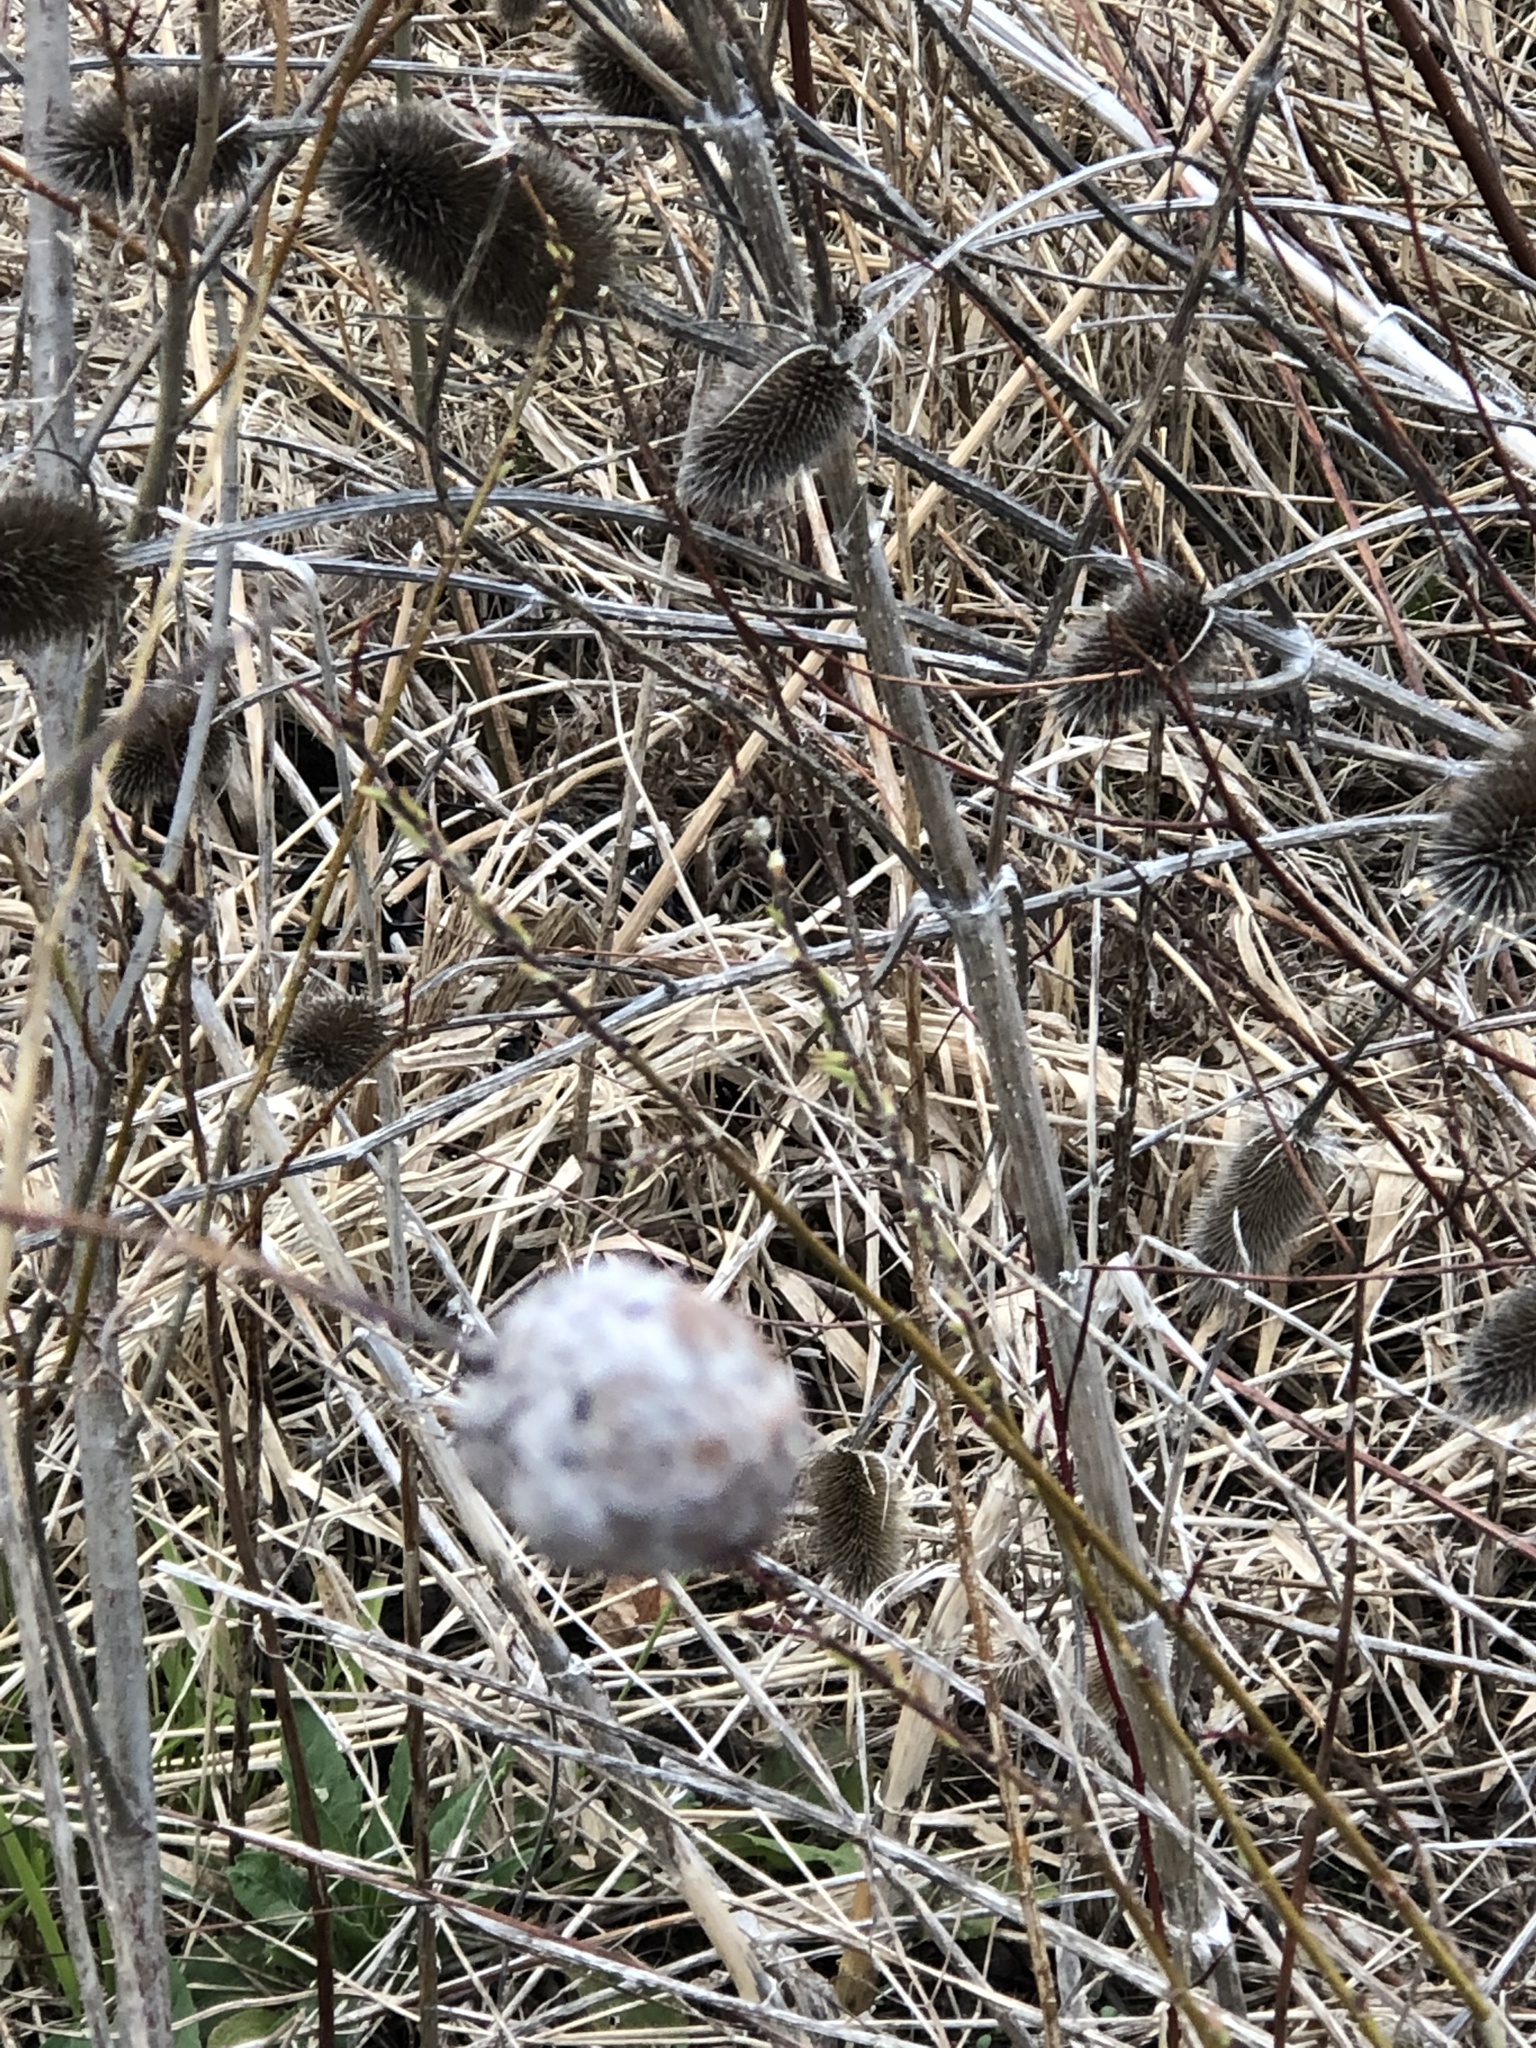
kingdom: Animalia
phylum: Arthropoda
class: Insecta
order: Diptera
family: Cecidomyiidae
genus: Rabdophaga
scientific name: Rabdophaga strobiloides
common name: Willow pinecone gall midge
